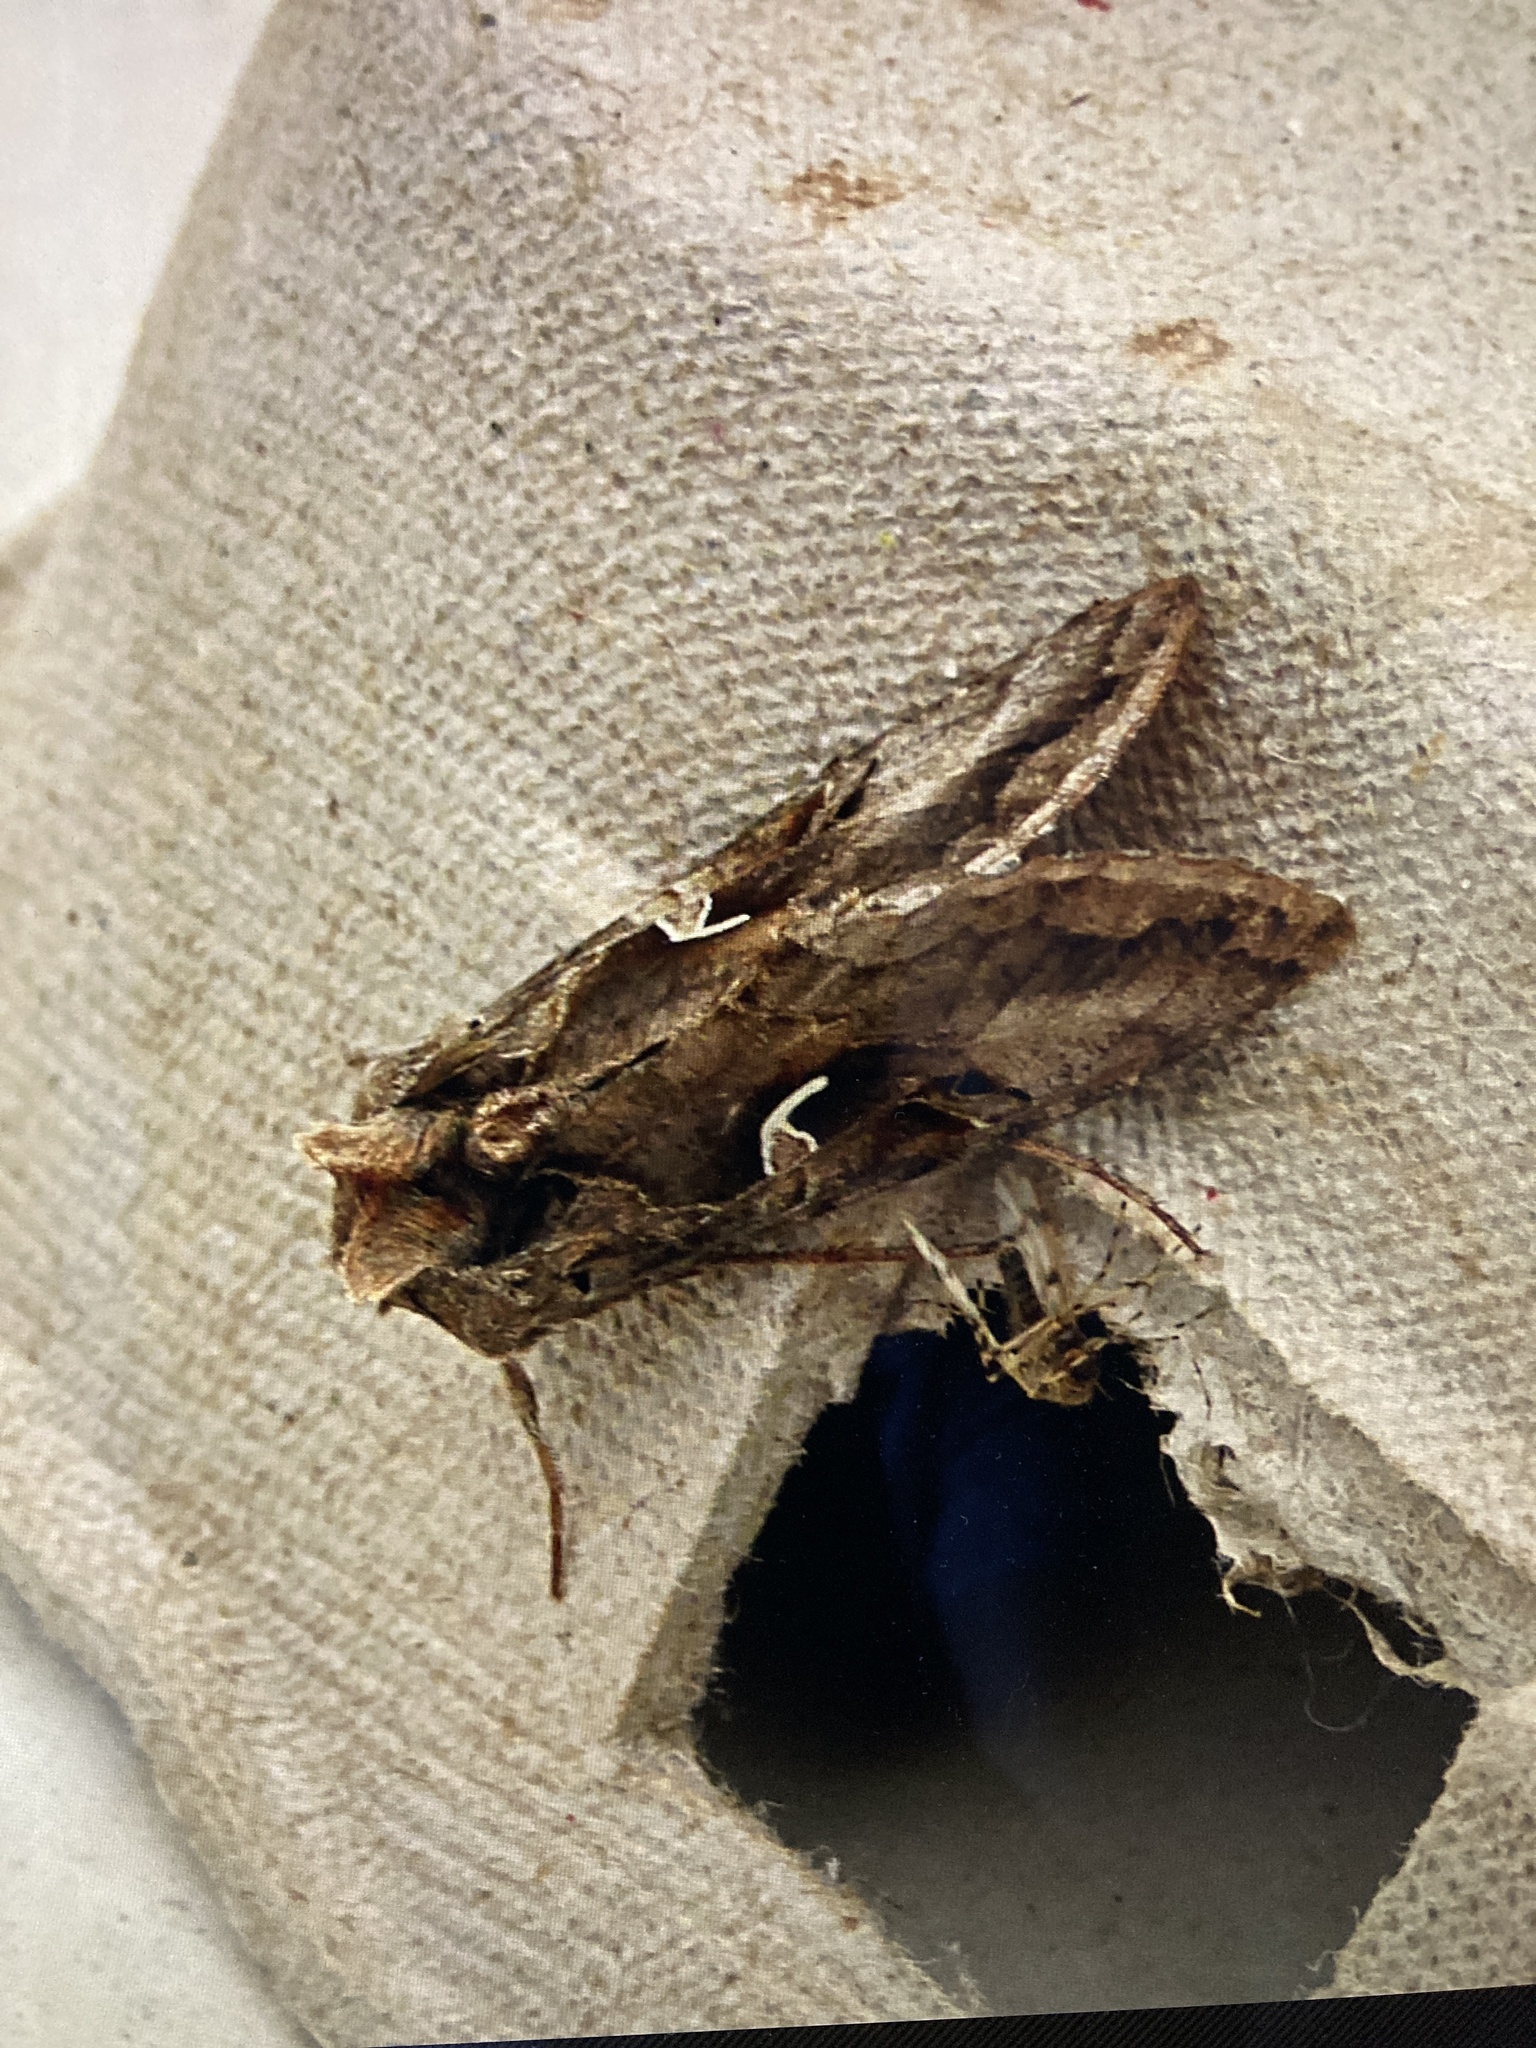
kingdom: Animalia
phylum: Arthropoda
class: Insecta
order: Lepidoptera
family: Noctuidae
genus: Autographa
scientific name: Autographa gamma
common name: Silver y
